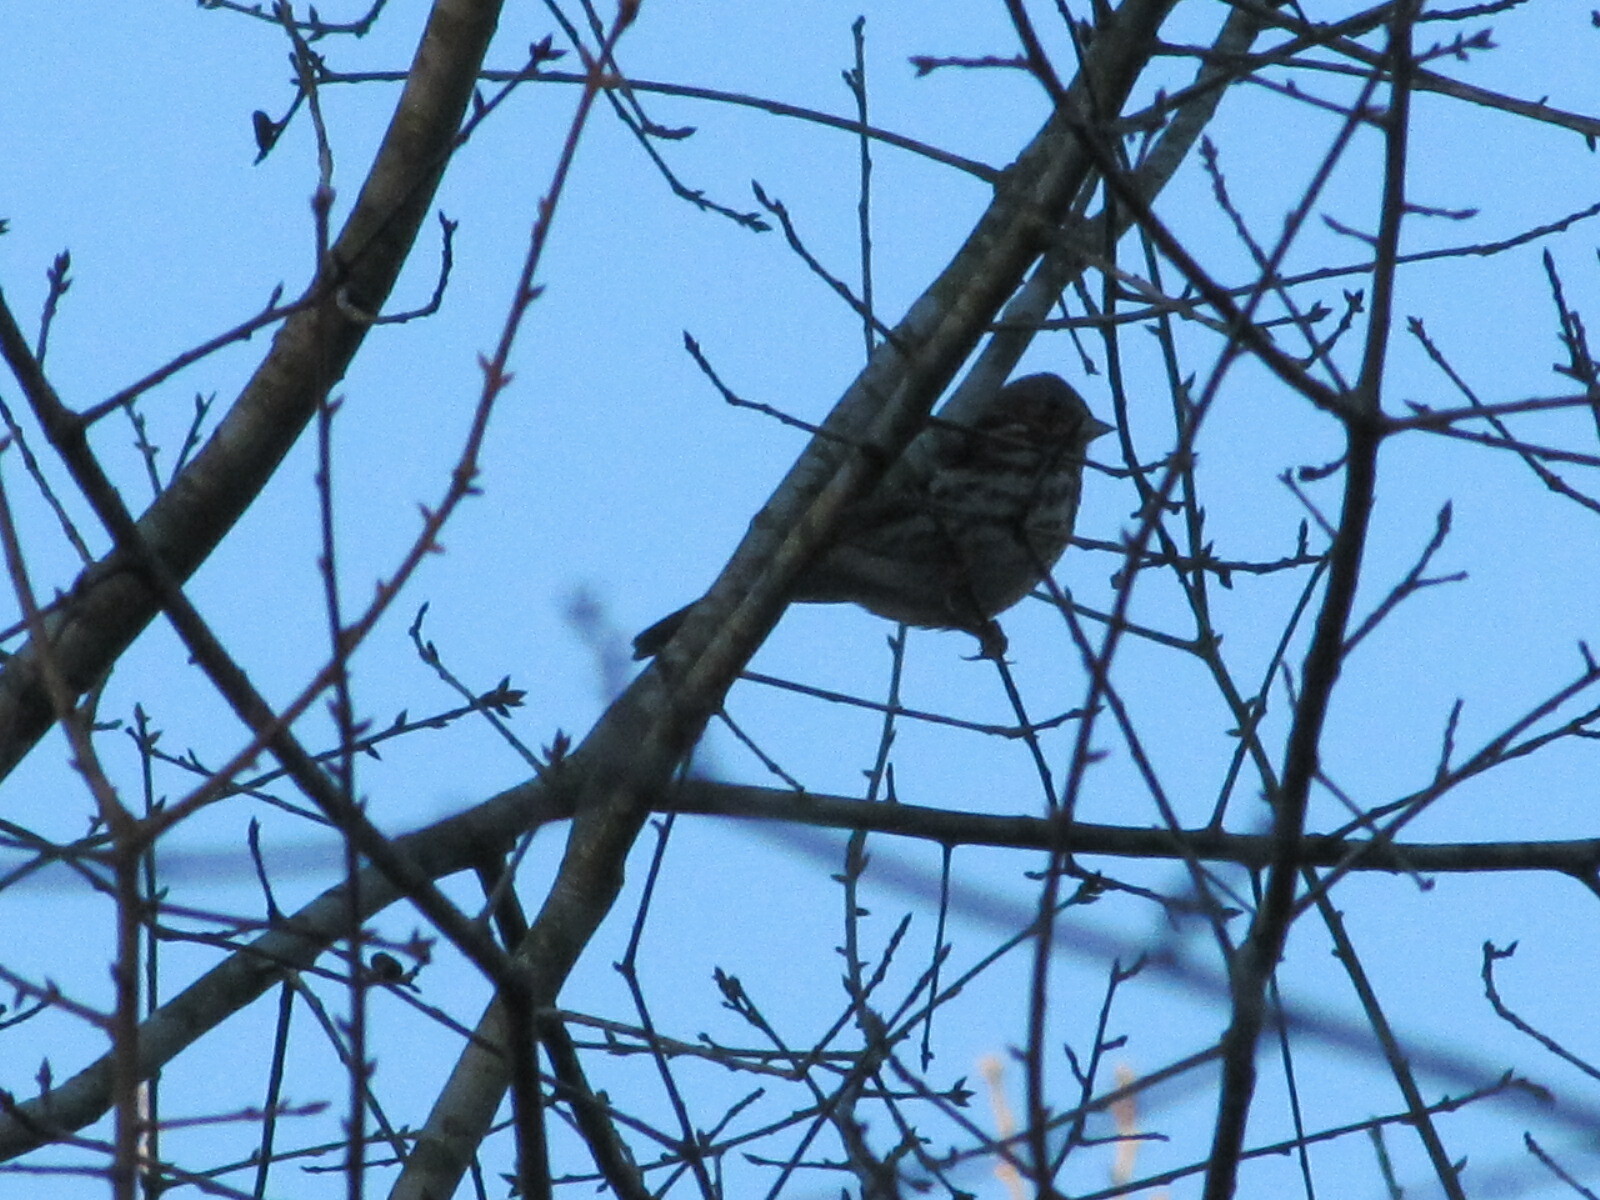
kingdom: Animalia
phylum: Chordata
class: Aves
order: Passeriformes
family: Passerellidae
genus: Passerella
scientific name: Passerella iliaca
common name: Fox sparrow
